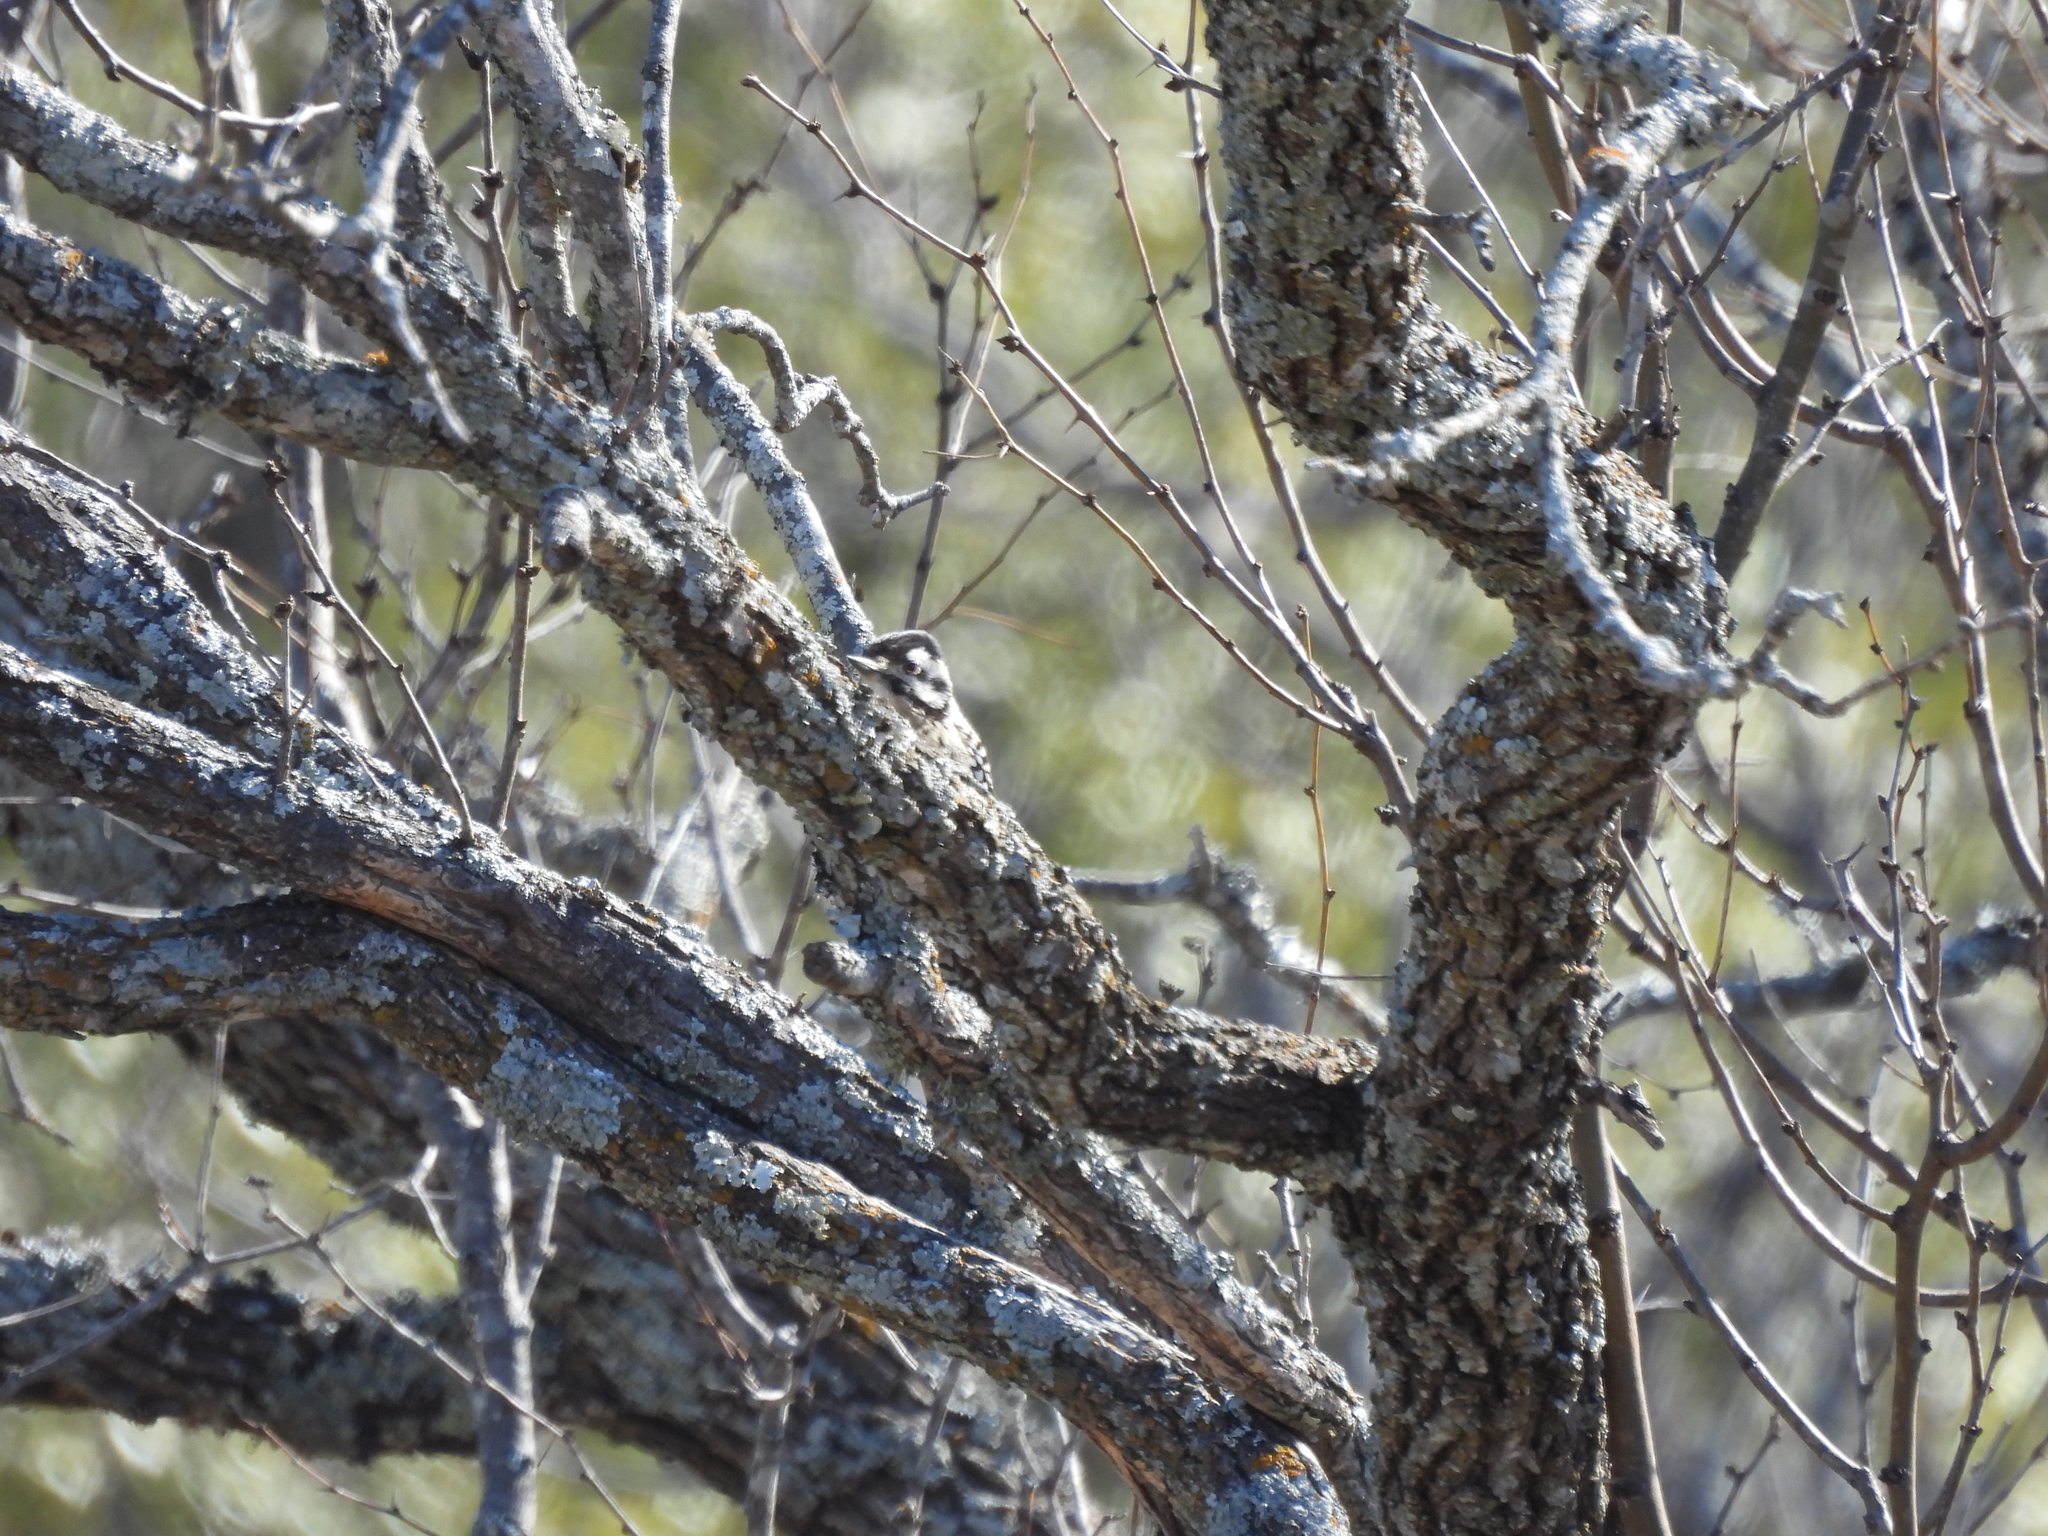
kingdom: Animalia
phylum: Chordata
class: Aves
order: Piciformes
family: Picidae
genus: Dryobates
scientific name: Dryobates scalaris
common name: Ladder-backed woodpecker
